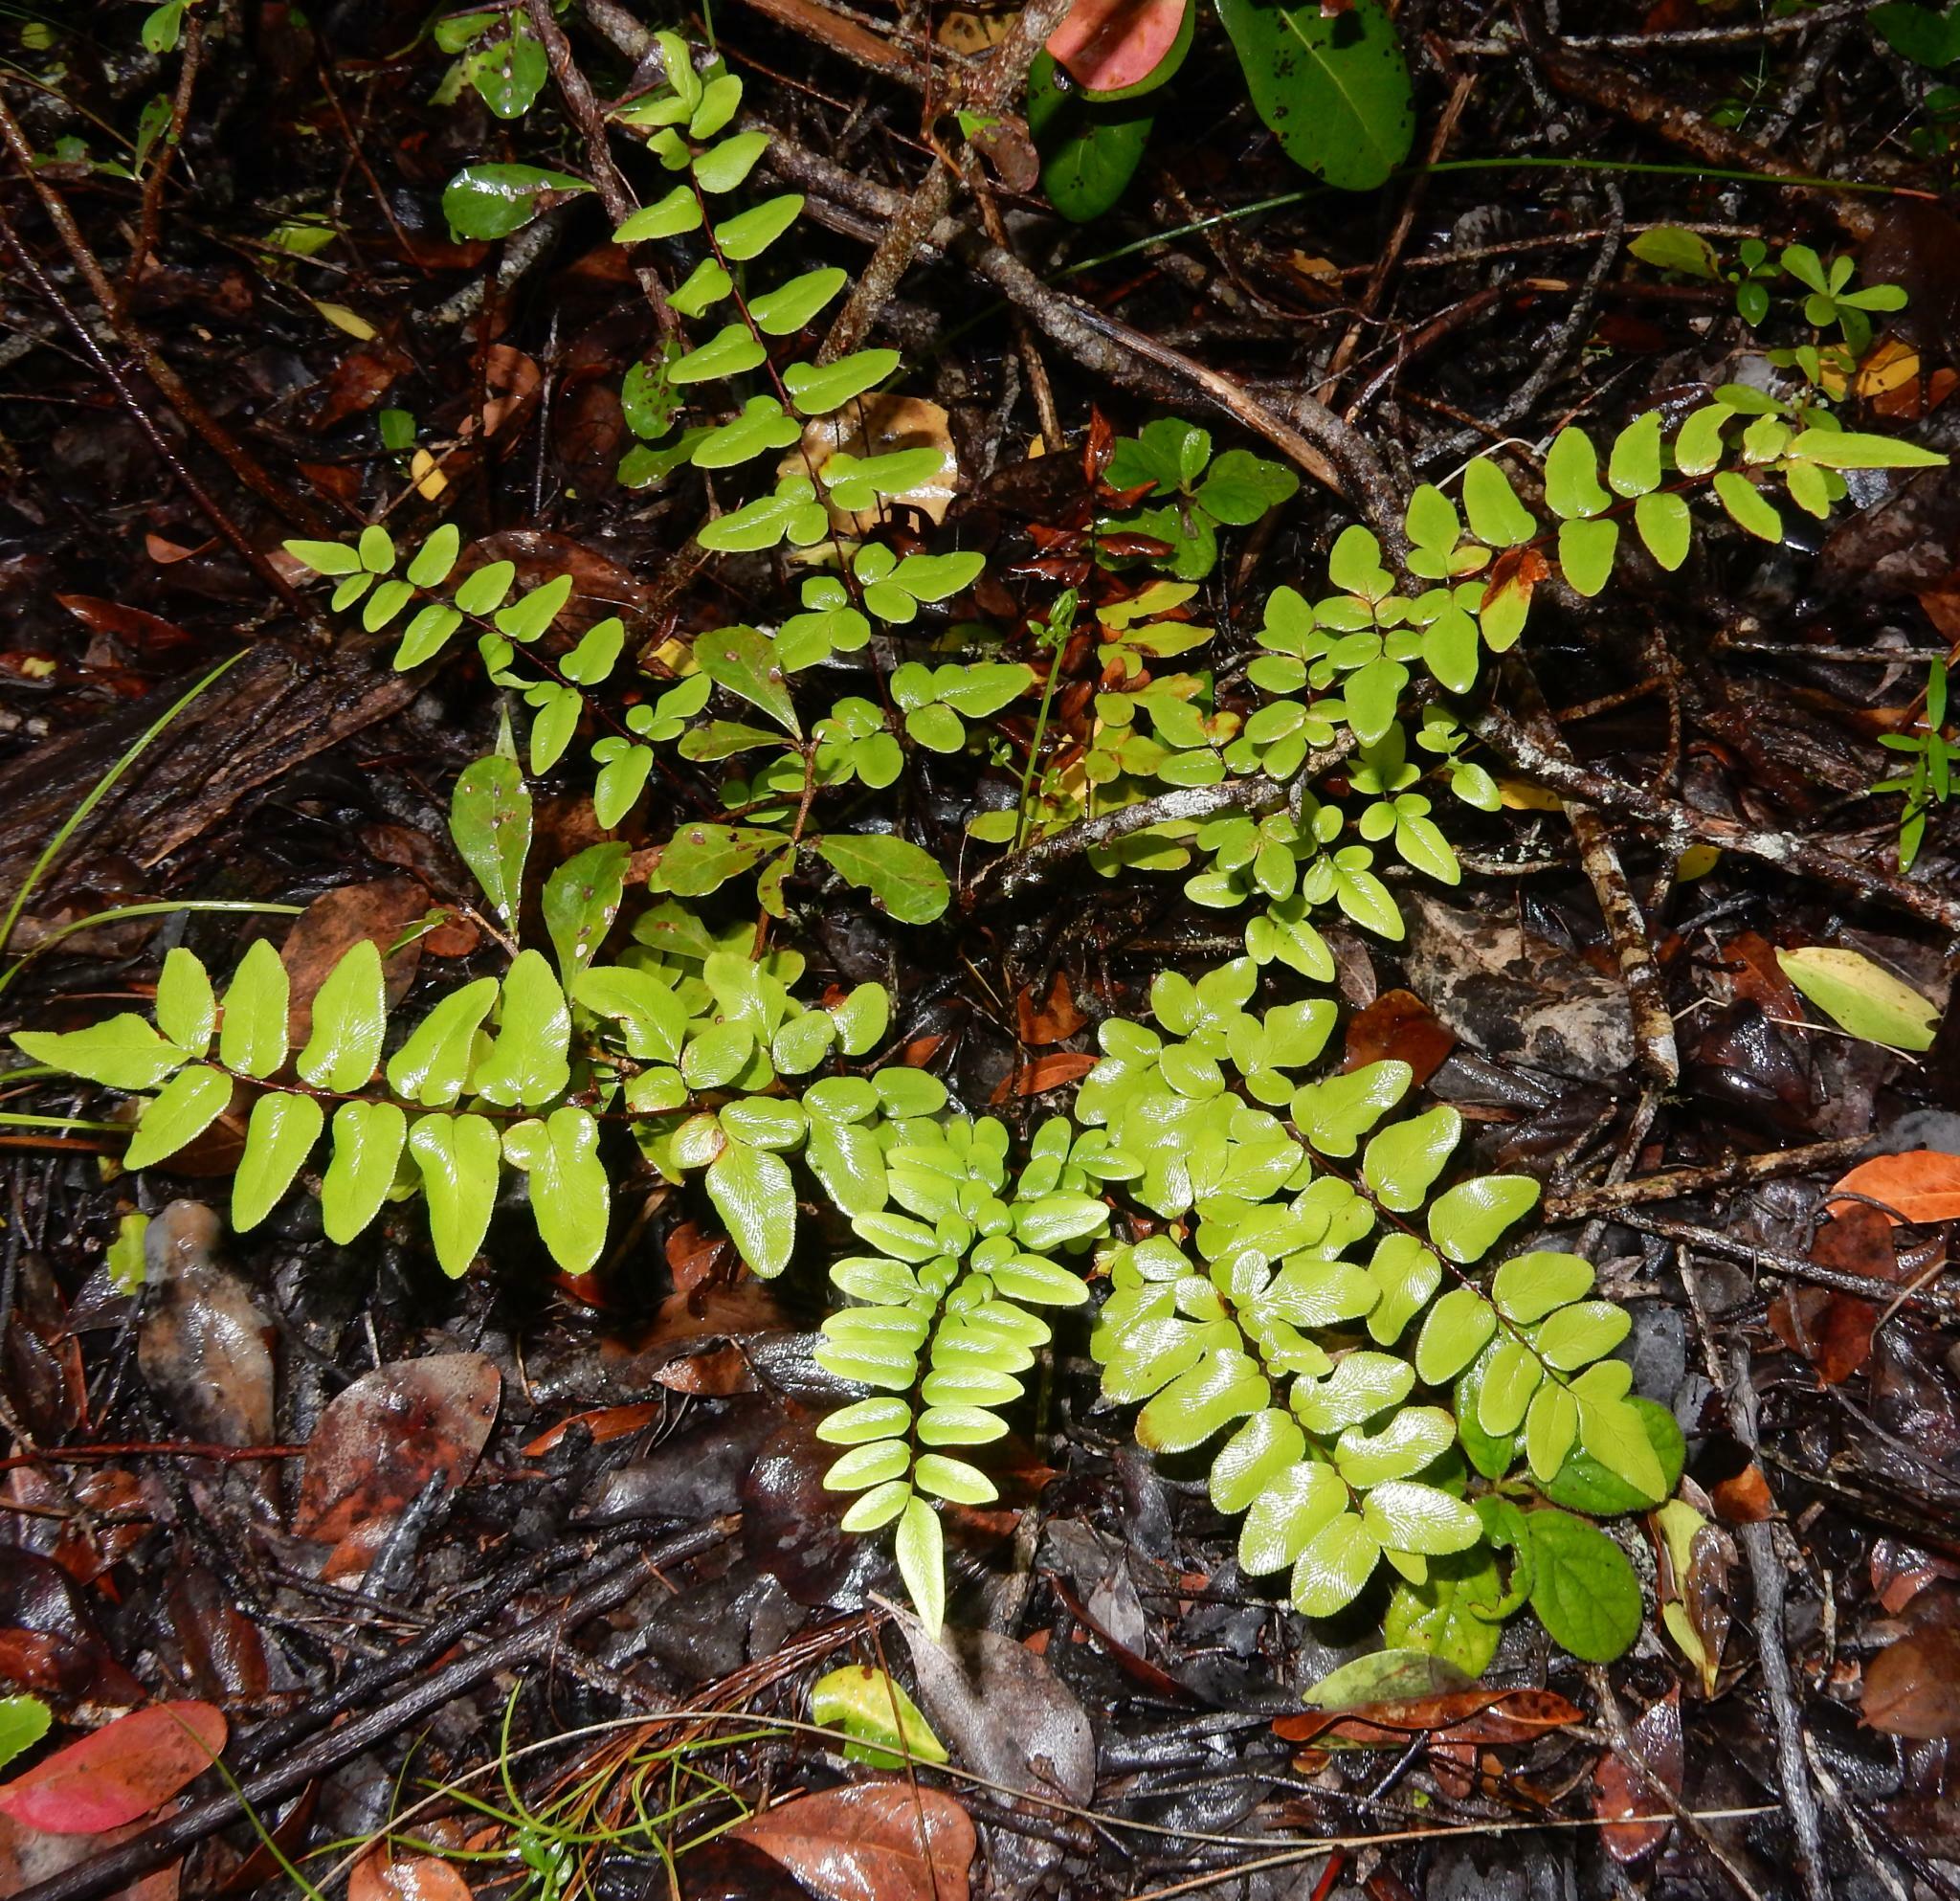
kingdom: Plantae
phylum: Tracheophyta
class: Polypodiopsida
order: Polypodiales
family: Pteridaceae
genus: Cheilanthes
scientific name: Cheilanthes viridis
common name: Green cliffbrake
